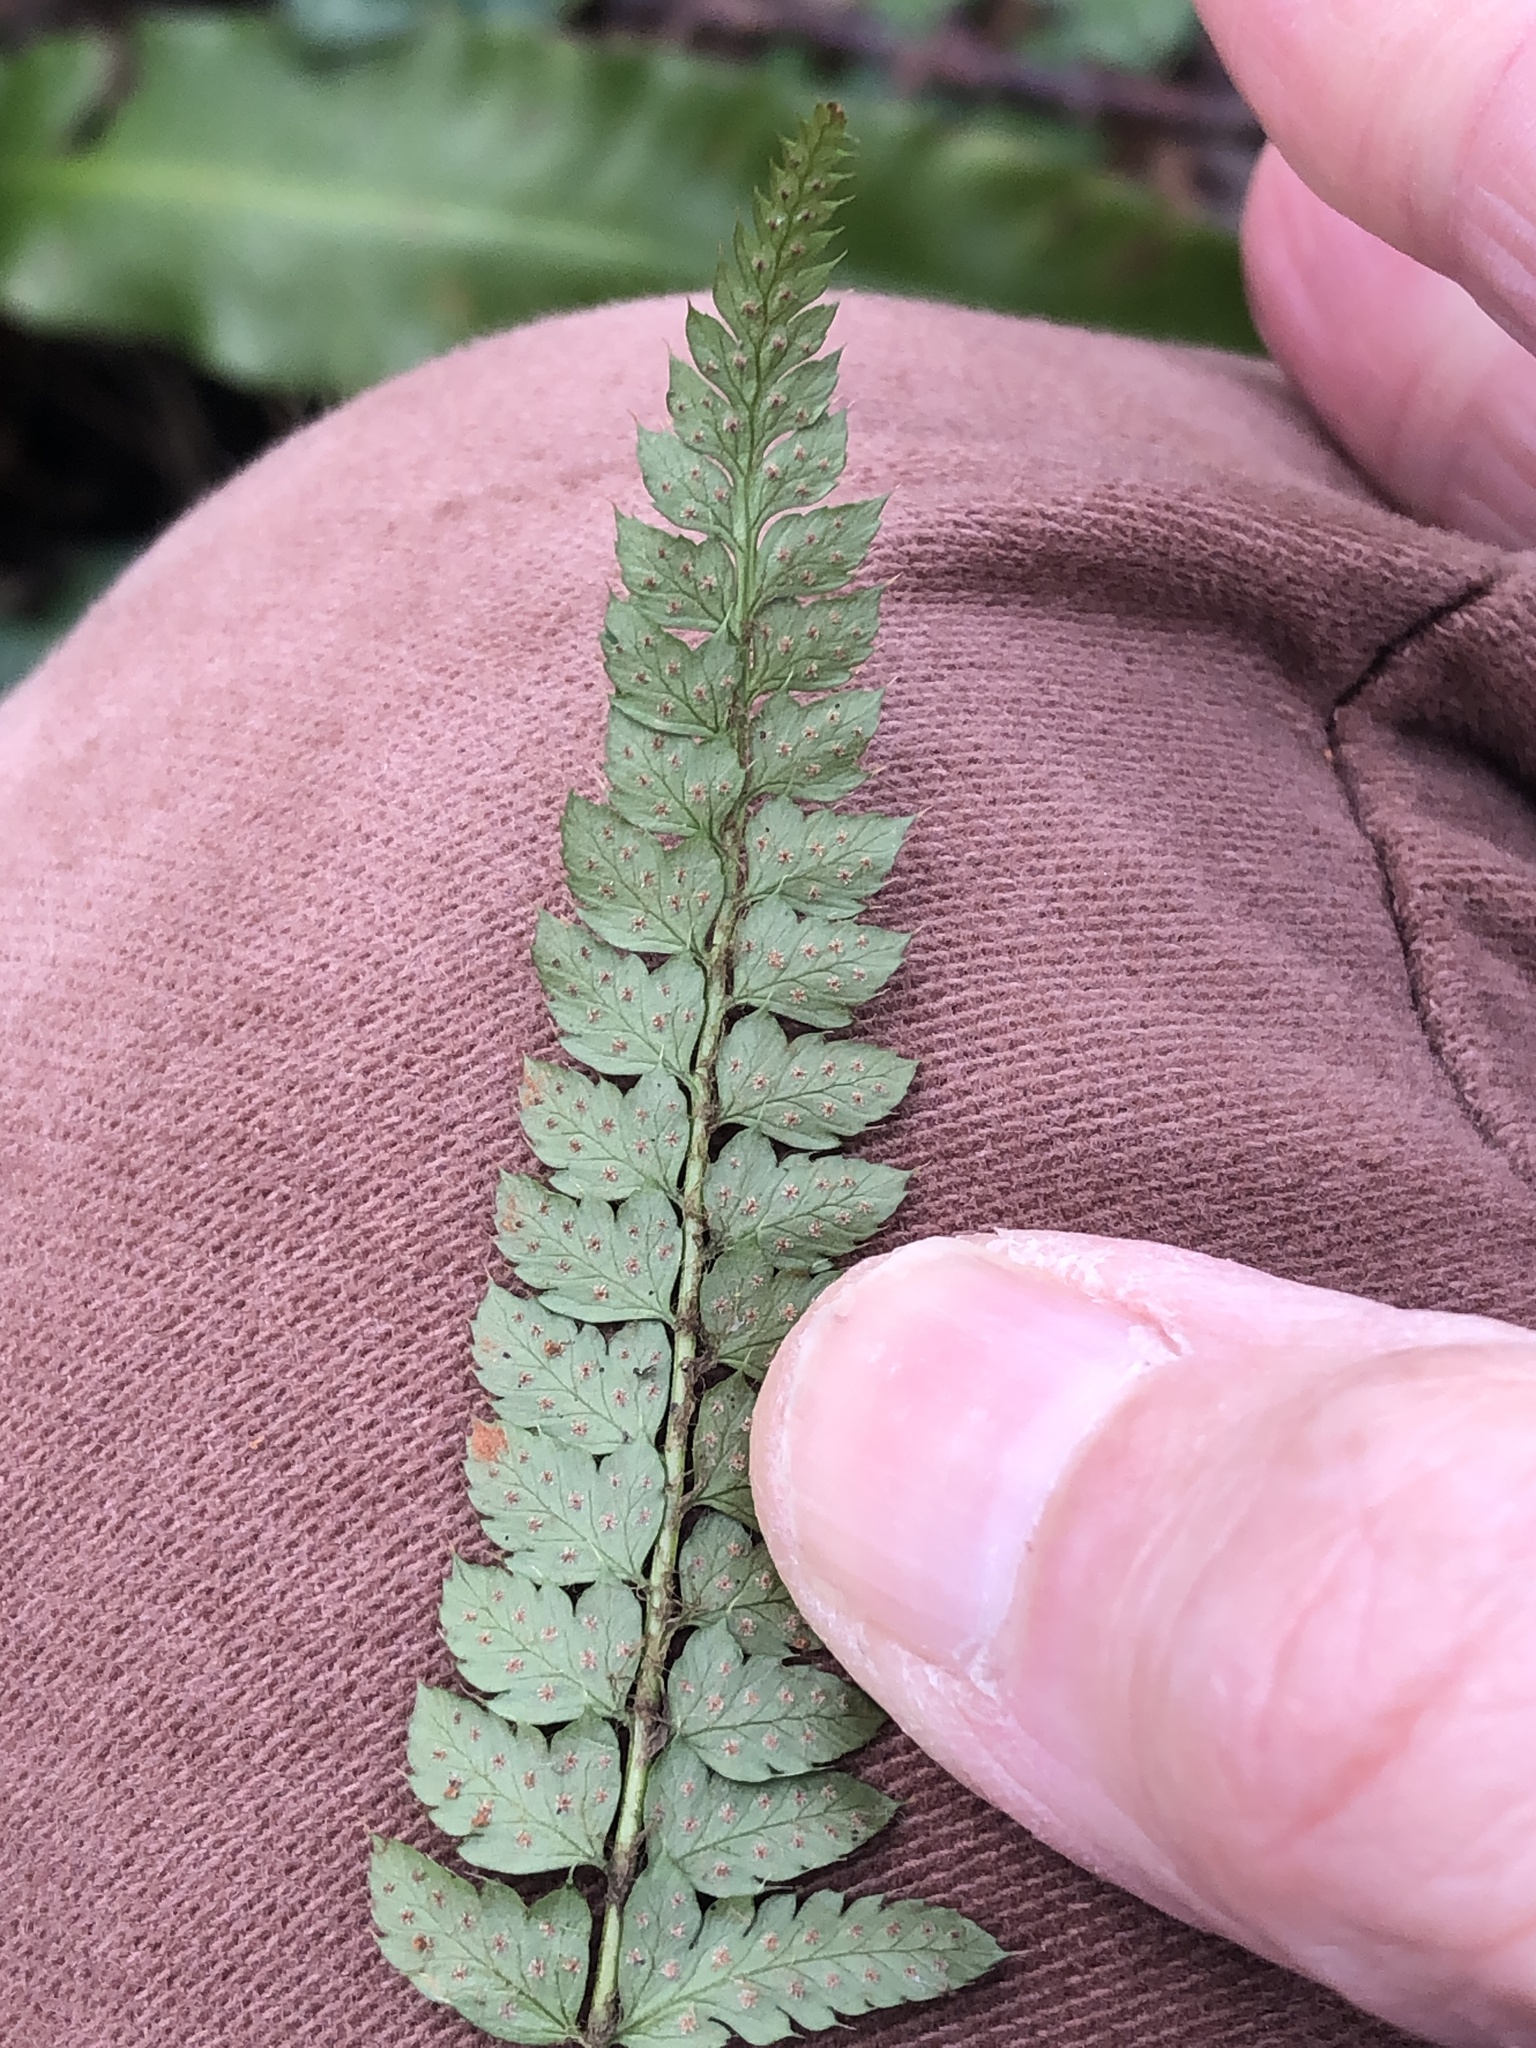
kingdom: Plantae
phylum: Tracheophyta
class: Polypodiopsida
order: Polypodiales
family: Dryopteridaceae
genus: Polystichum
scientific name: Polystichum setiferum
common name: Soft shield-fern
